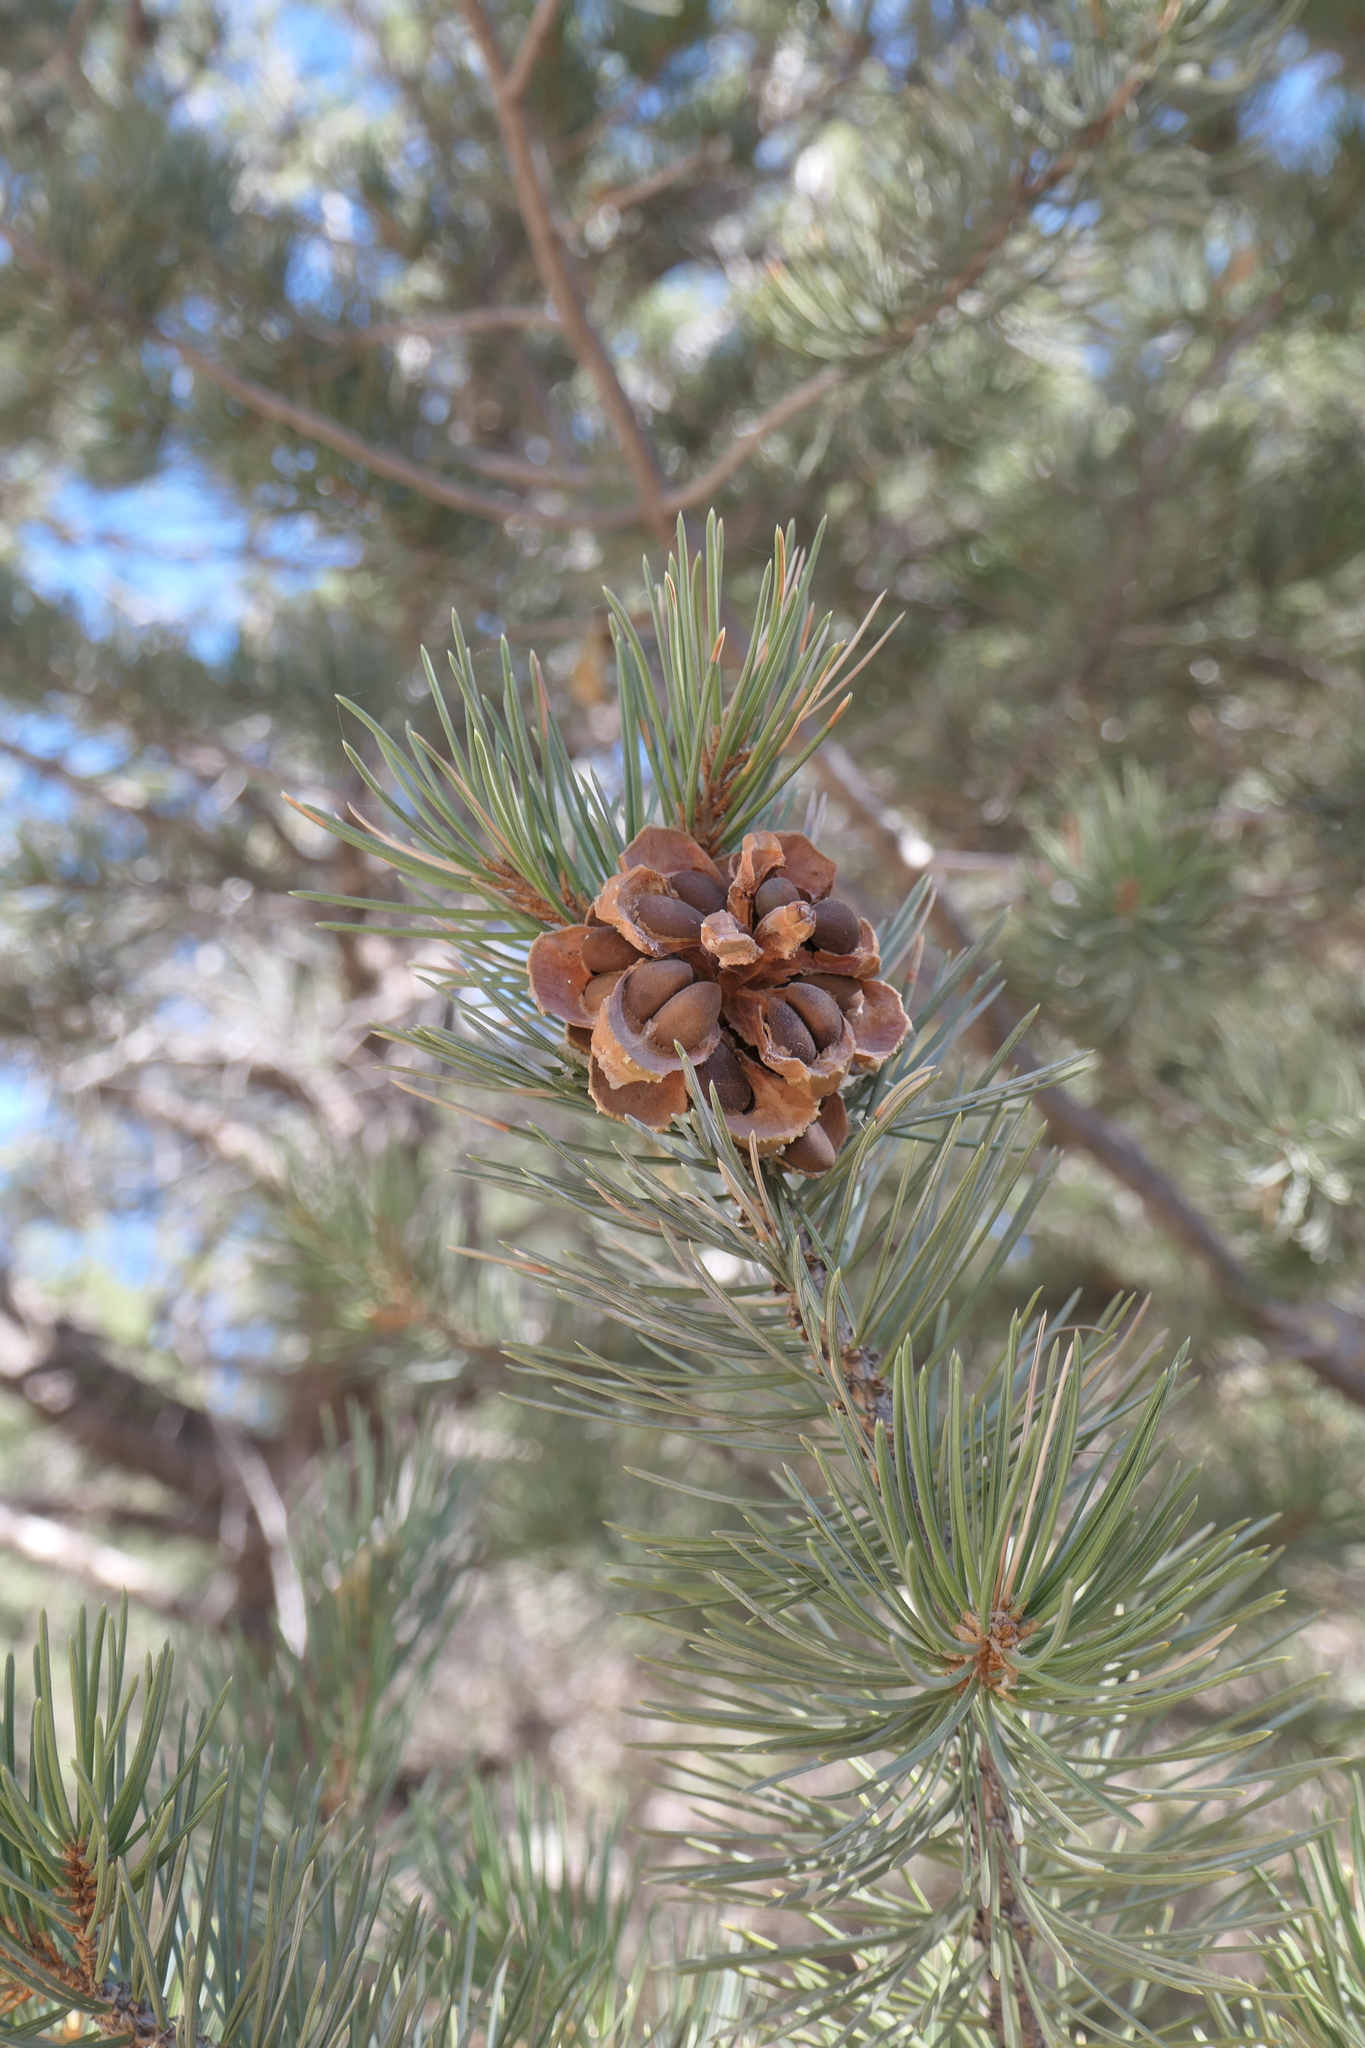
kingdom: Plantae
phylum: Tracheophyta
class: Pinopsida
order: Pinales
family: Pinaceae
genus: Pinus
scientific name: Pinus edulis
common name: Colorado pinyon
